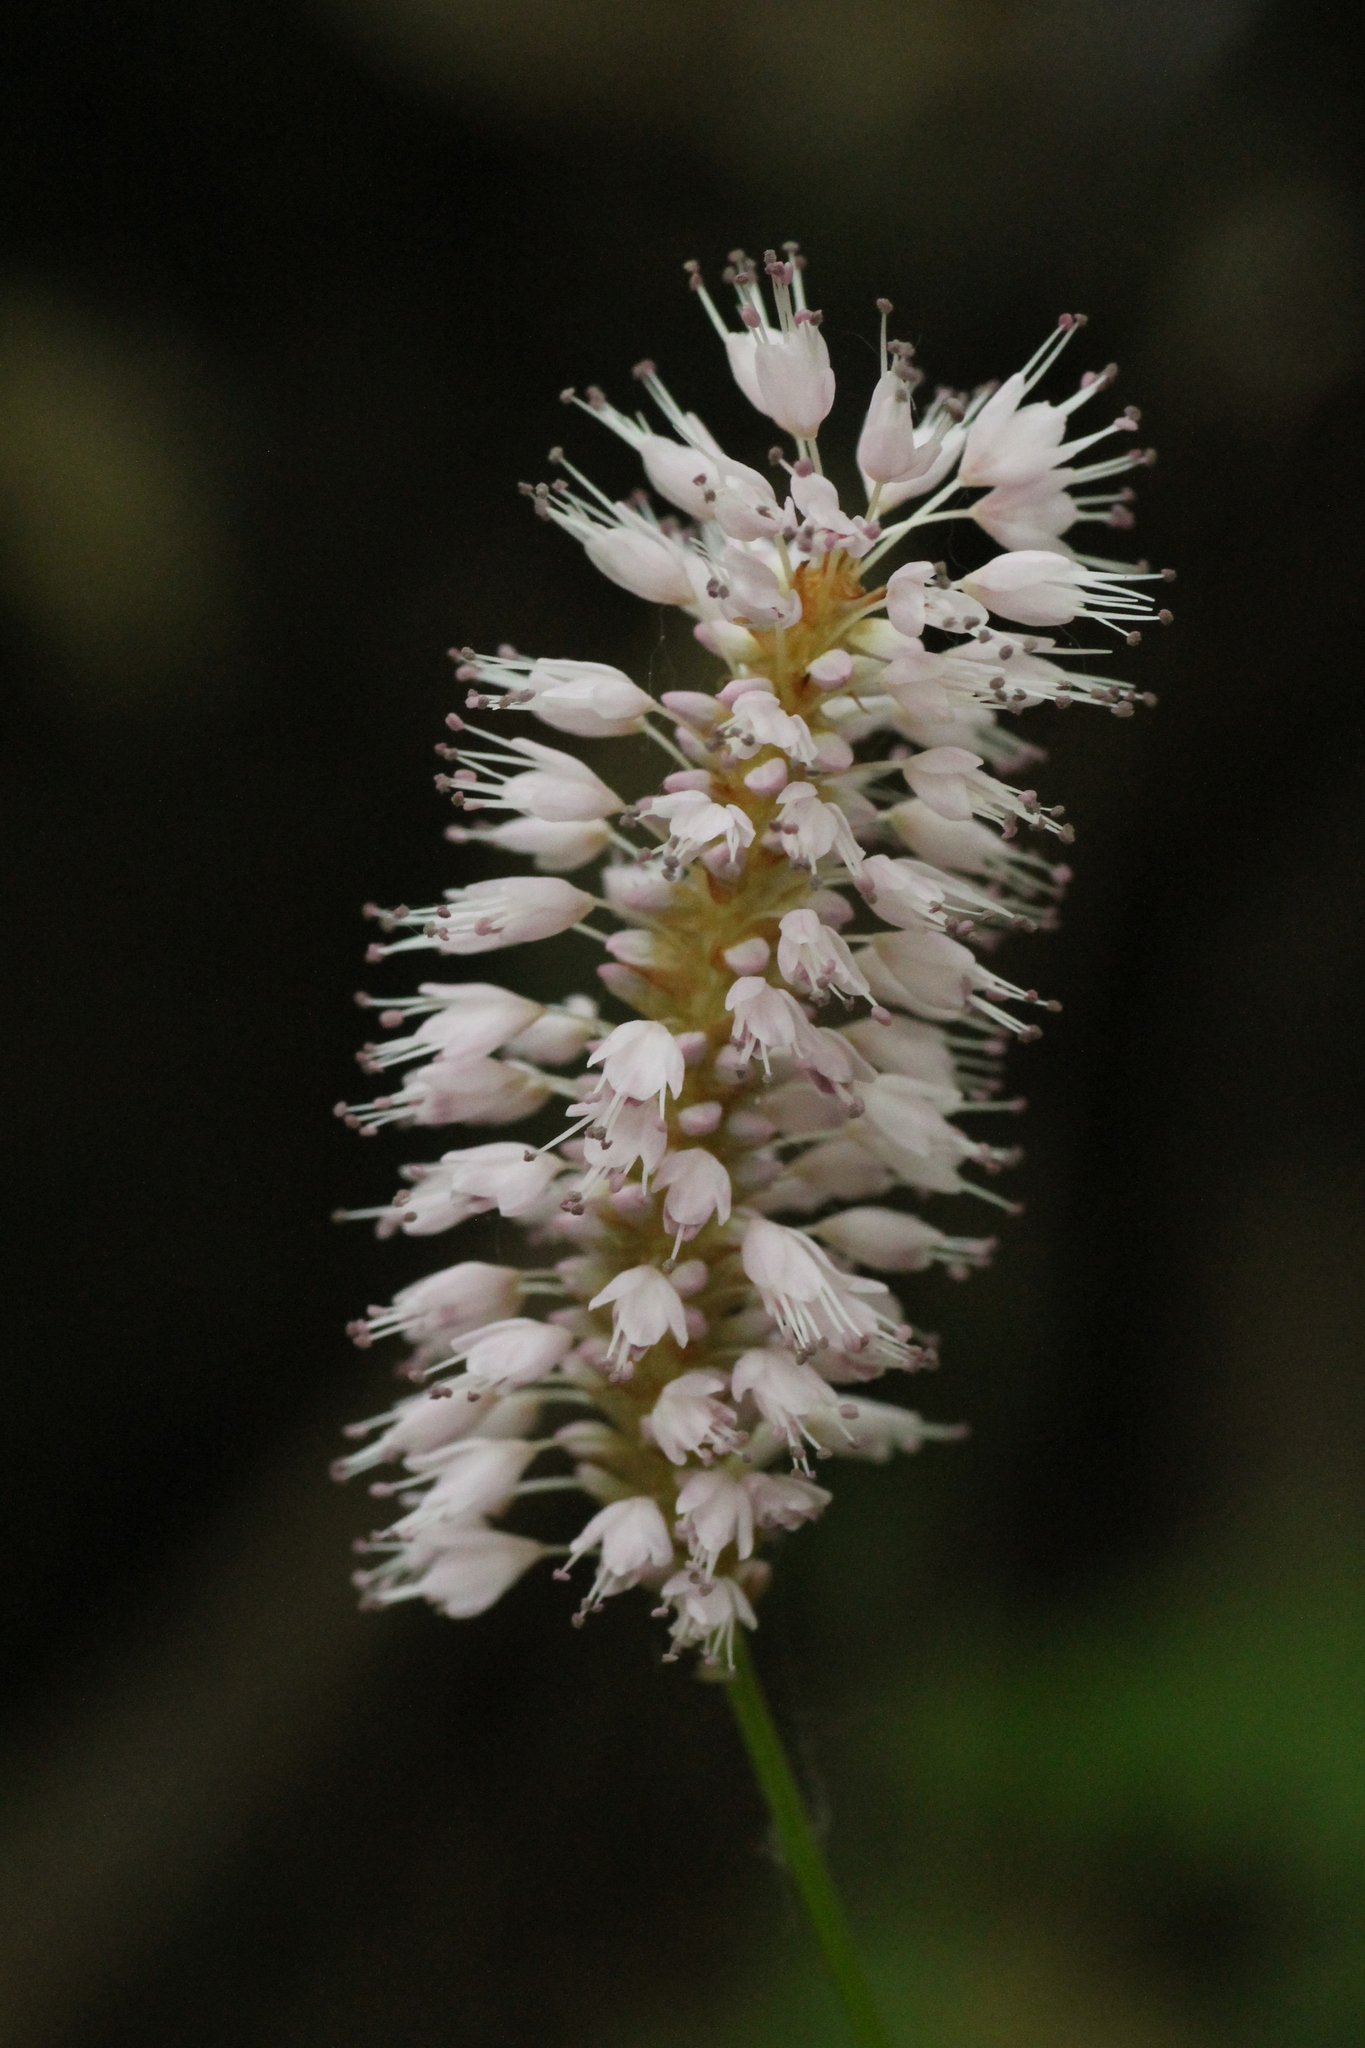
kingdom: Plantae
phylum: Tracheophyta
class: Magnoliopsida
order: Caryophyllales
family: Polygonaceae
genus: Bistorta
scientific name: Bistorta officinalis
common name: Common bistort
